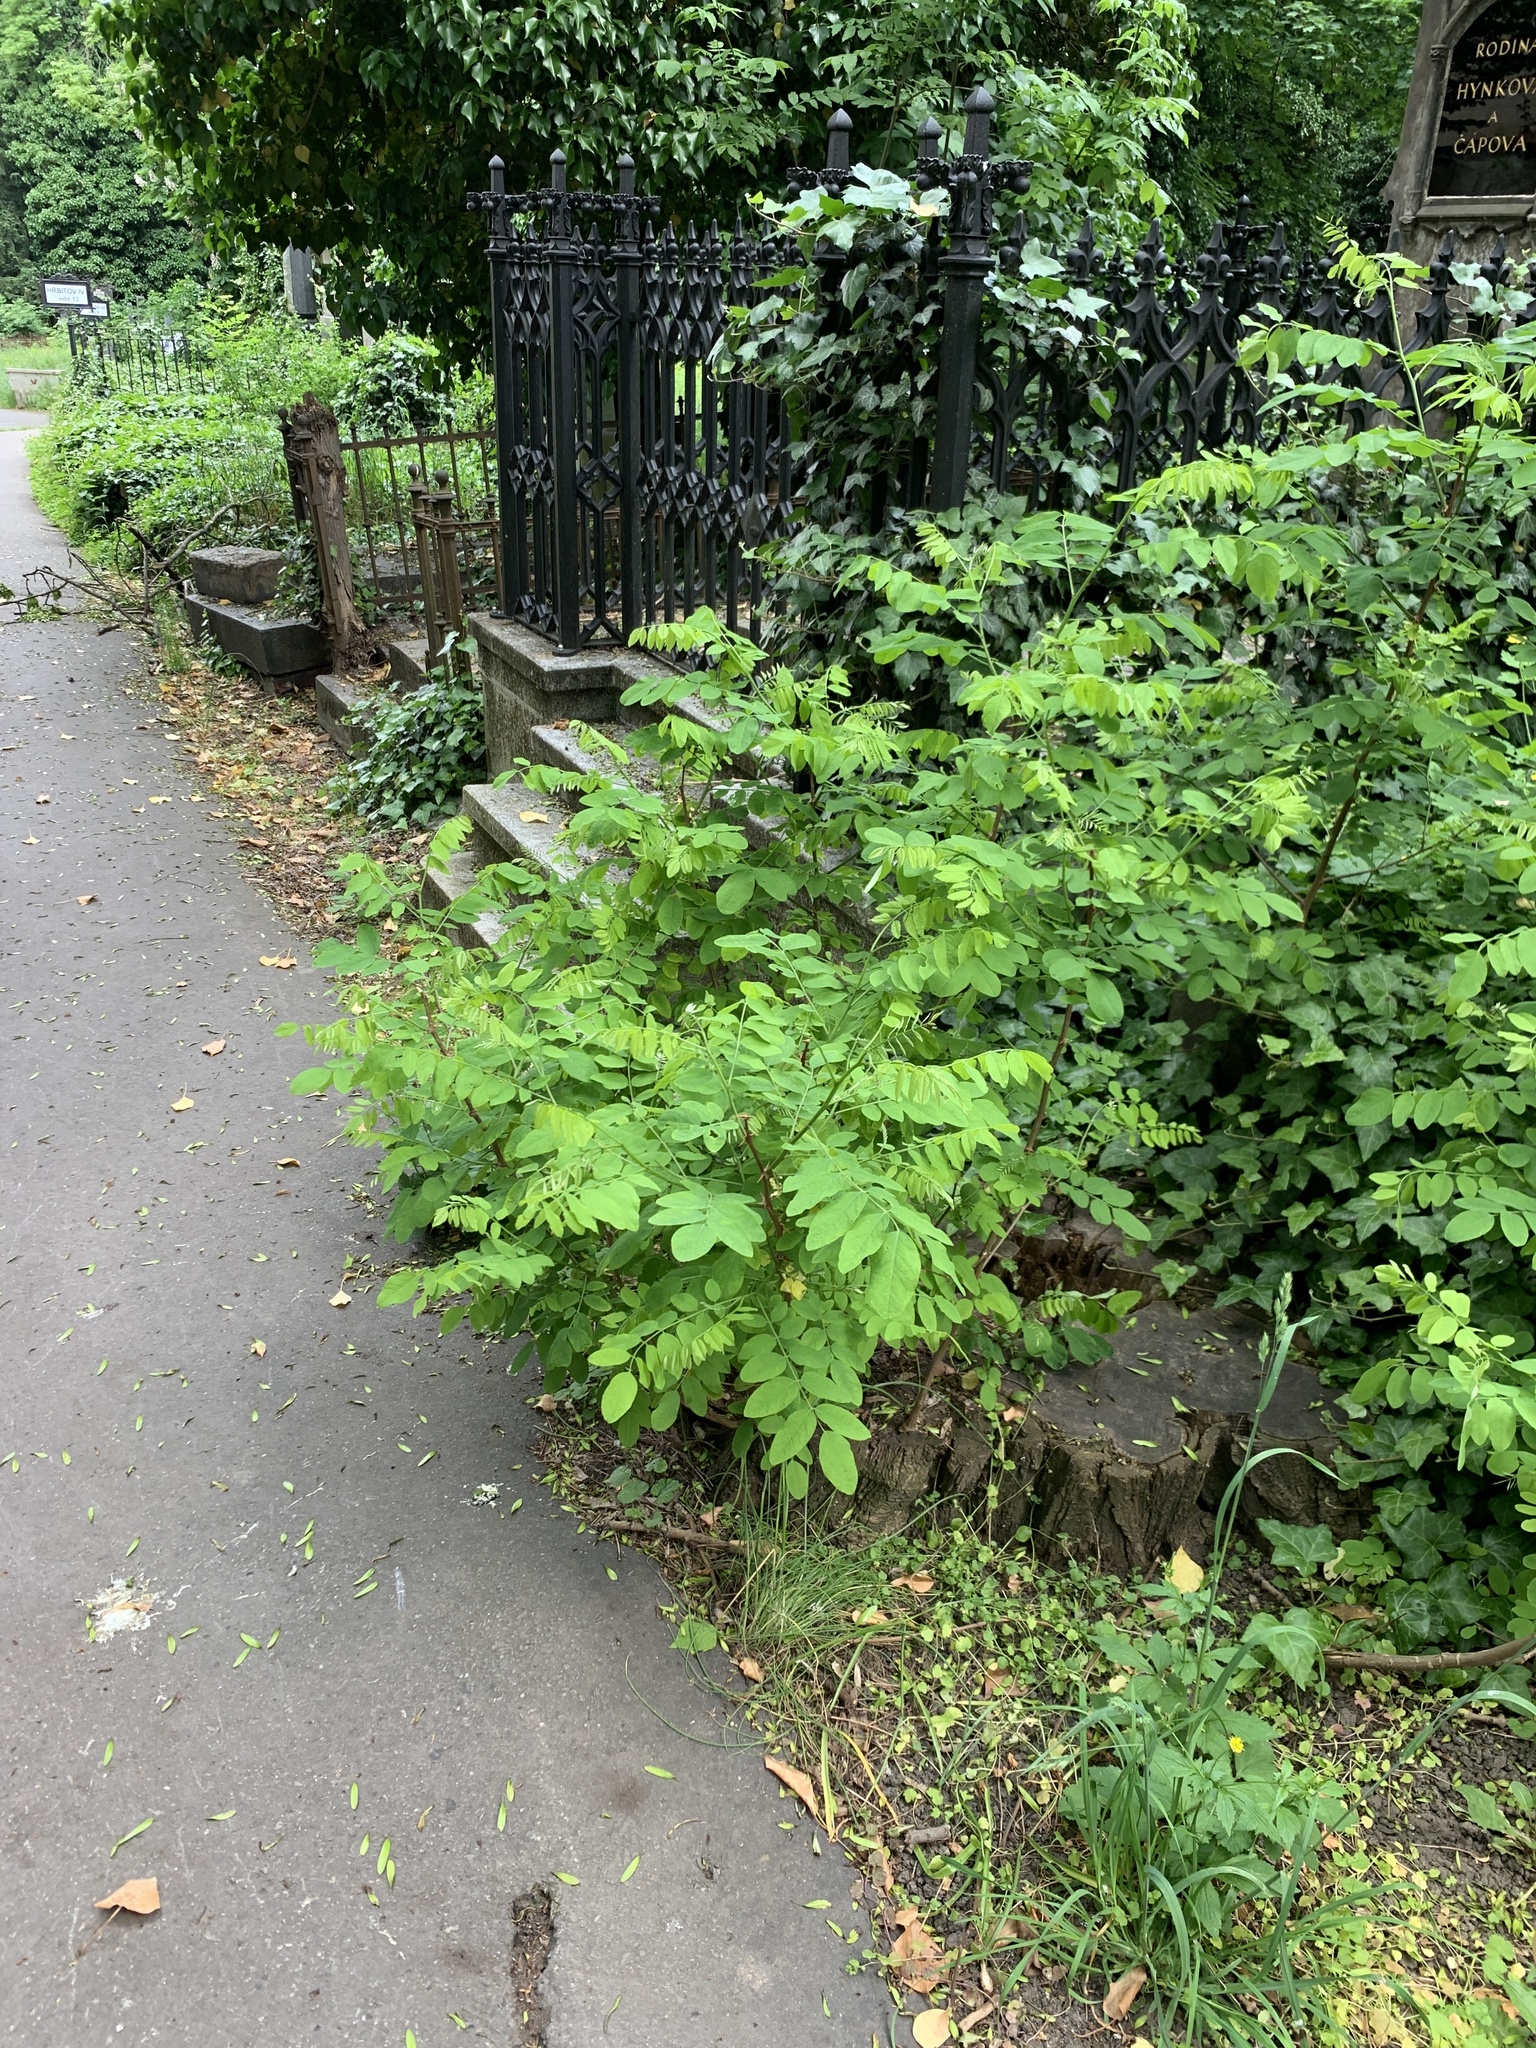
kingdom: Plantae
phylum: Tracheophyta
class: Magnoliopsida
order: Fabales
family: Fabaceae
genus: Robinia
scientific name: Robinia pseudoacacia
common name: Black locust
